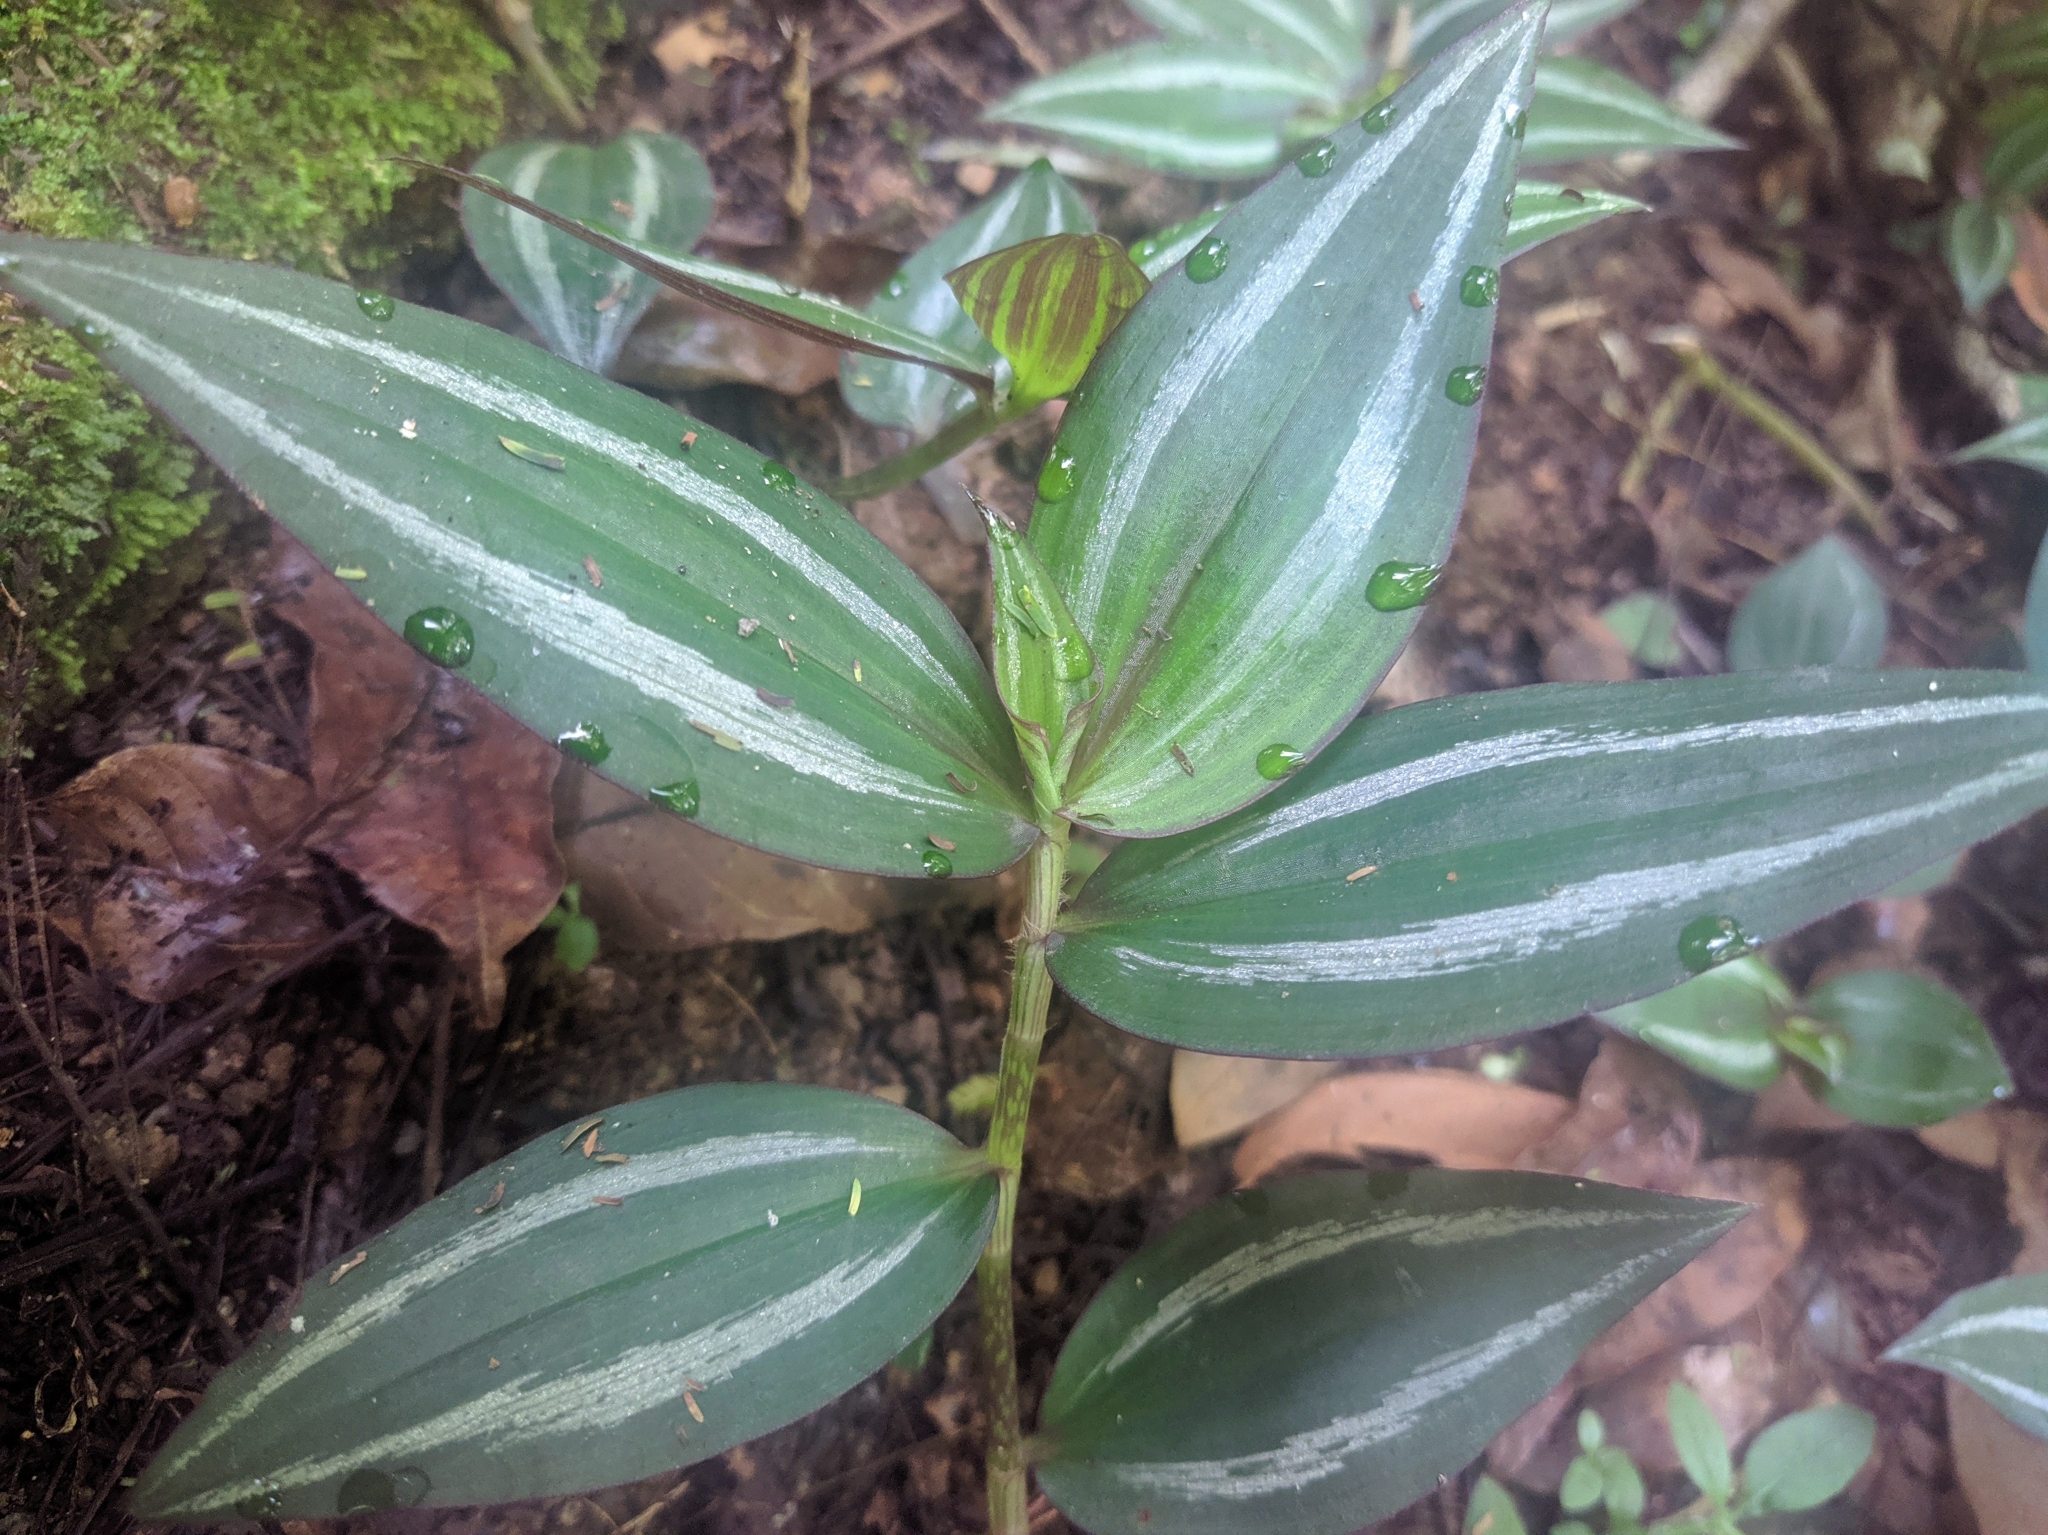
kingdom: Plantae
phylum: Tracheophyta
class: Liliopsida
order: Commelinales
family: Commelinaceae
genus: Tradescantia
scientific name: Tradescantia zebrina
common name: Inchplant
